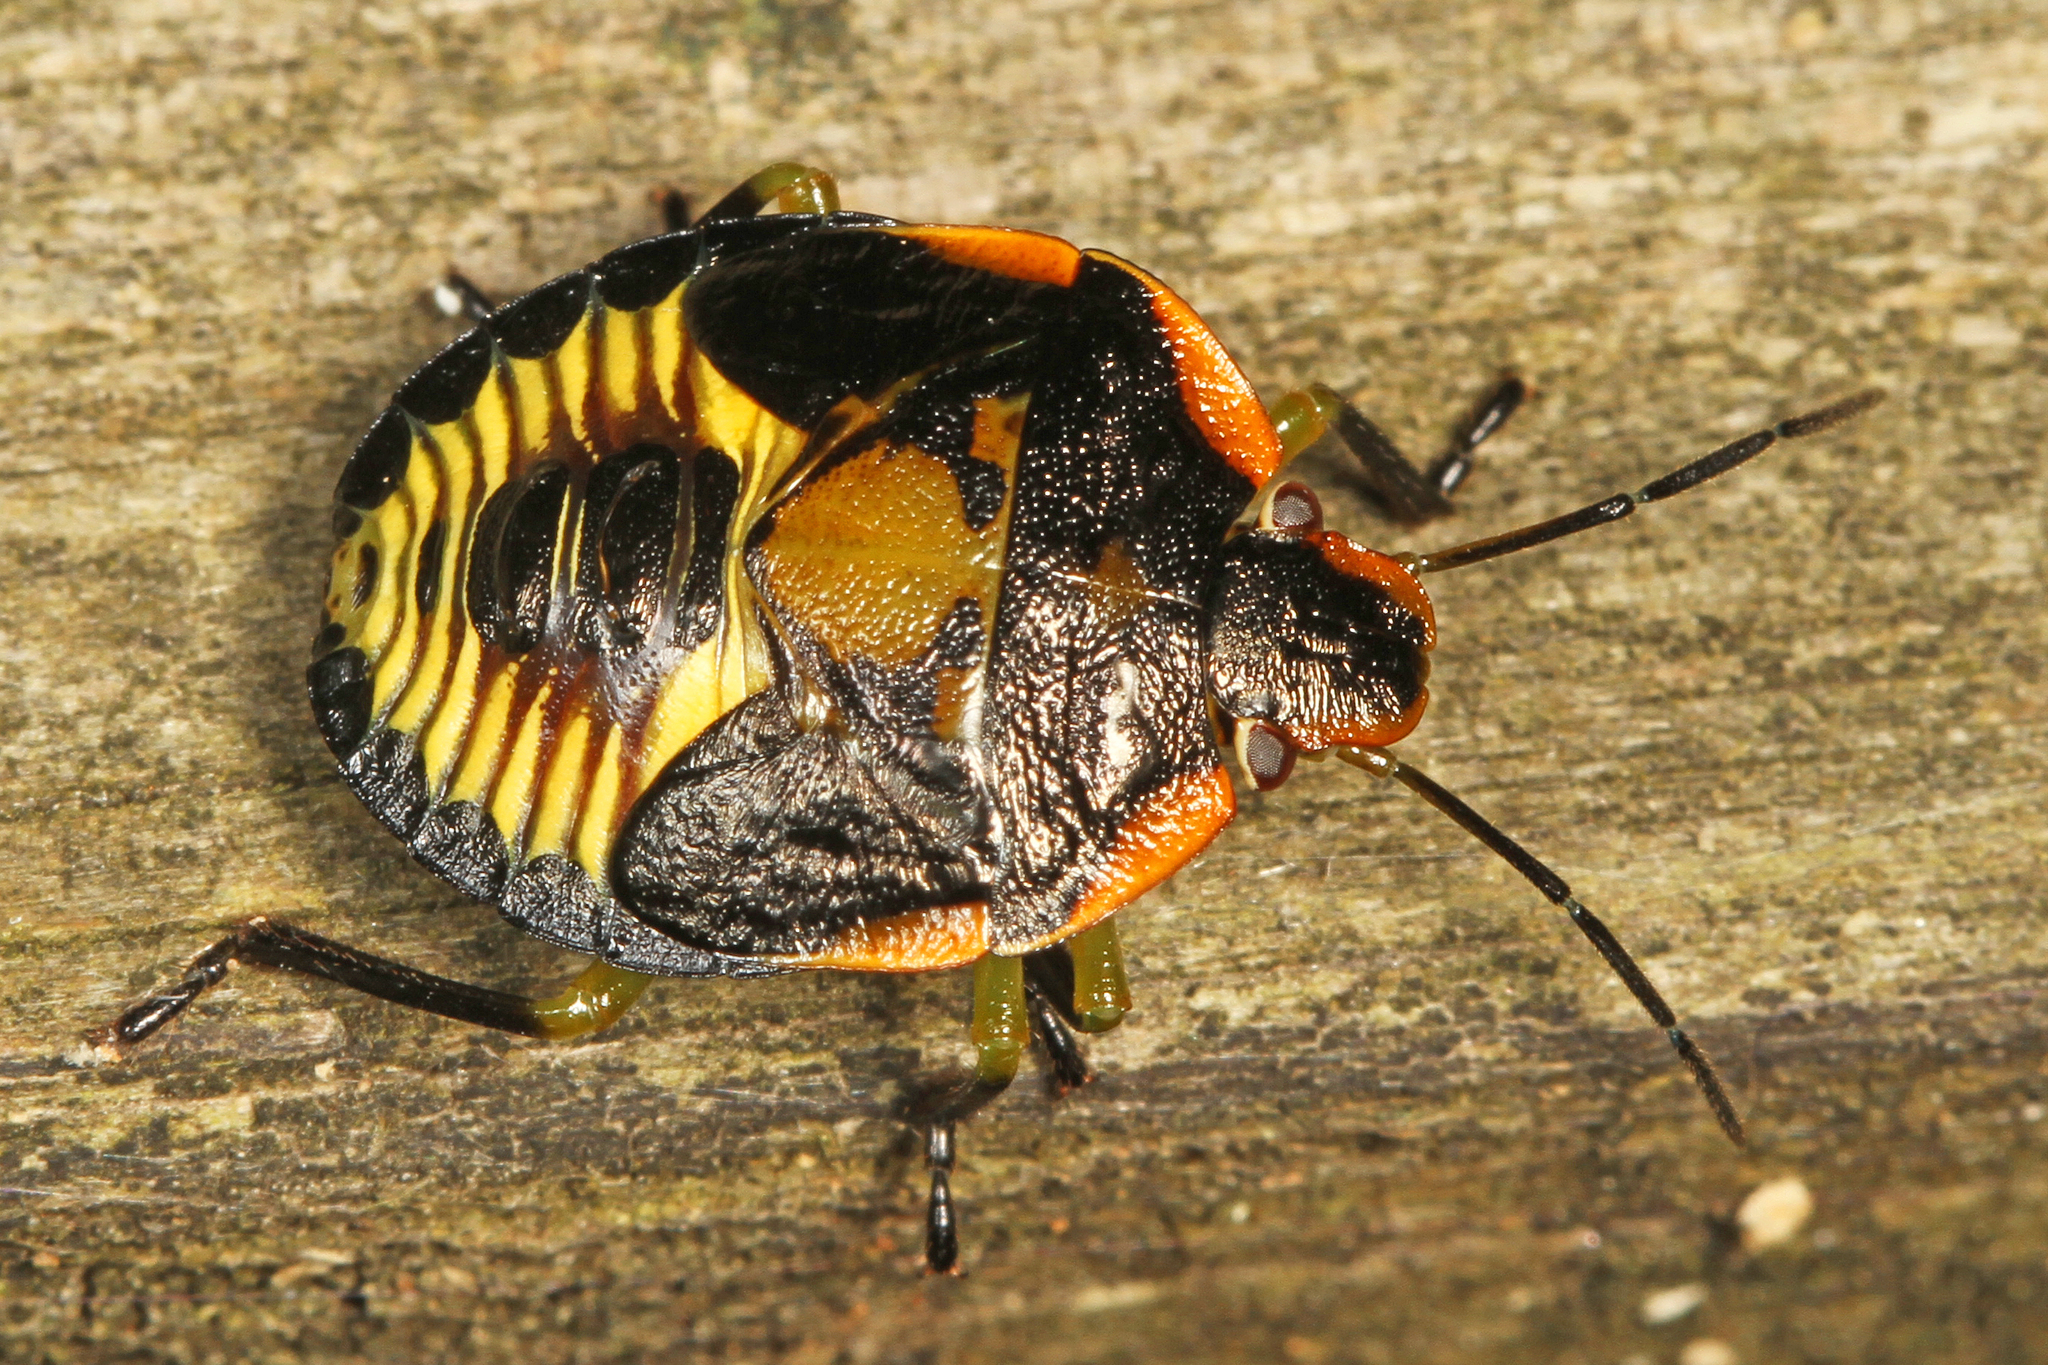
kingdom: Animalia
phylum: Arthropoda
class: Insecta
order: Hemiptera
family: Pentatomidae
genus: Chinavia
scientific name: Chinavia hilaris
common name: Green stink bug
